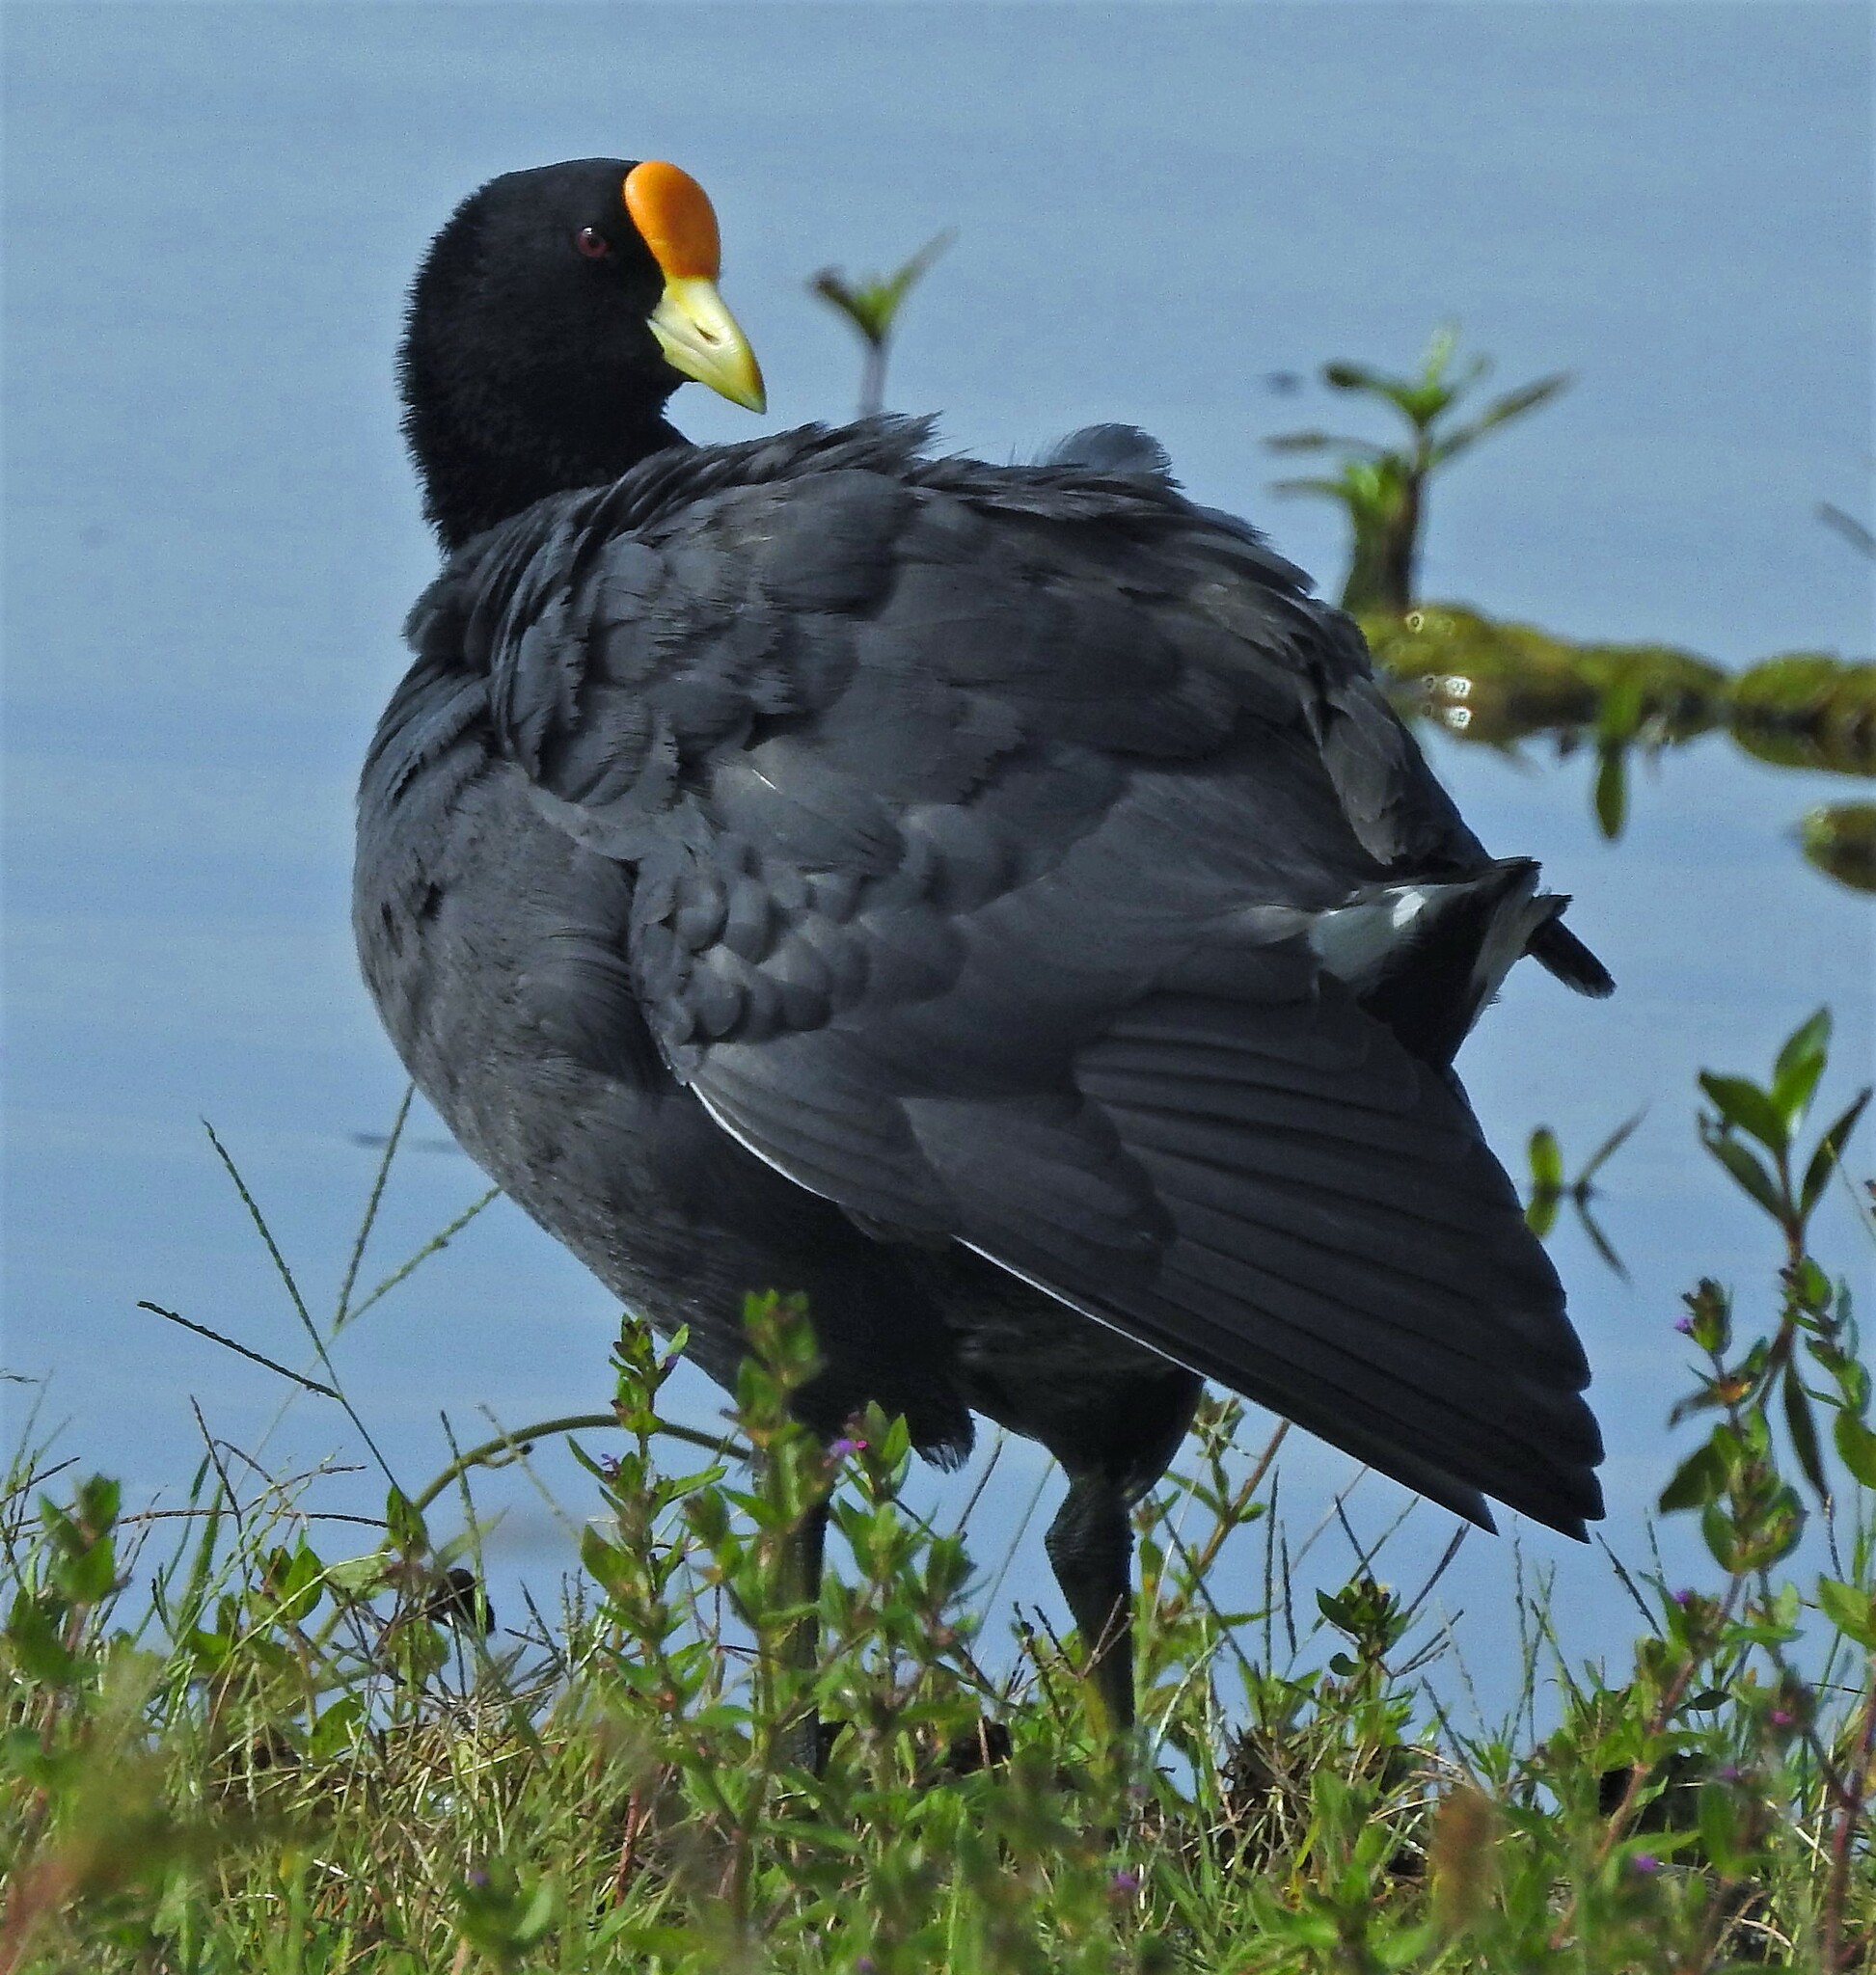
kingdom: Animalia
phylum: Chordata
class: Aves
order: Gruiformes
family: Rallidae
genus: Fulica
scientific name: Fulica leucoptera
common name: White-winged coot
